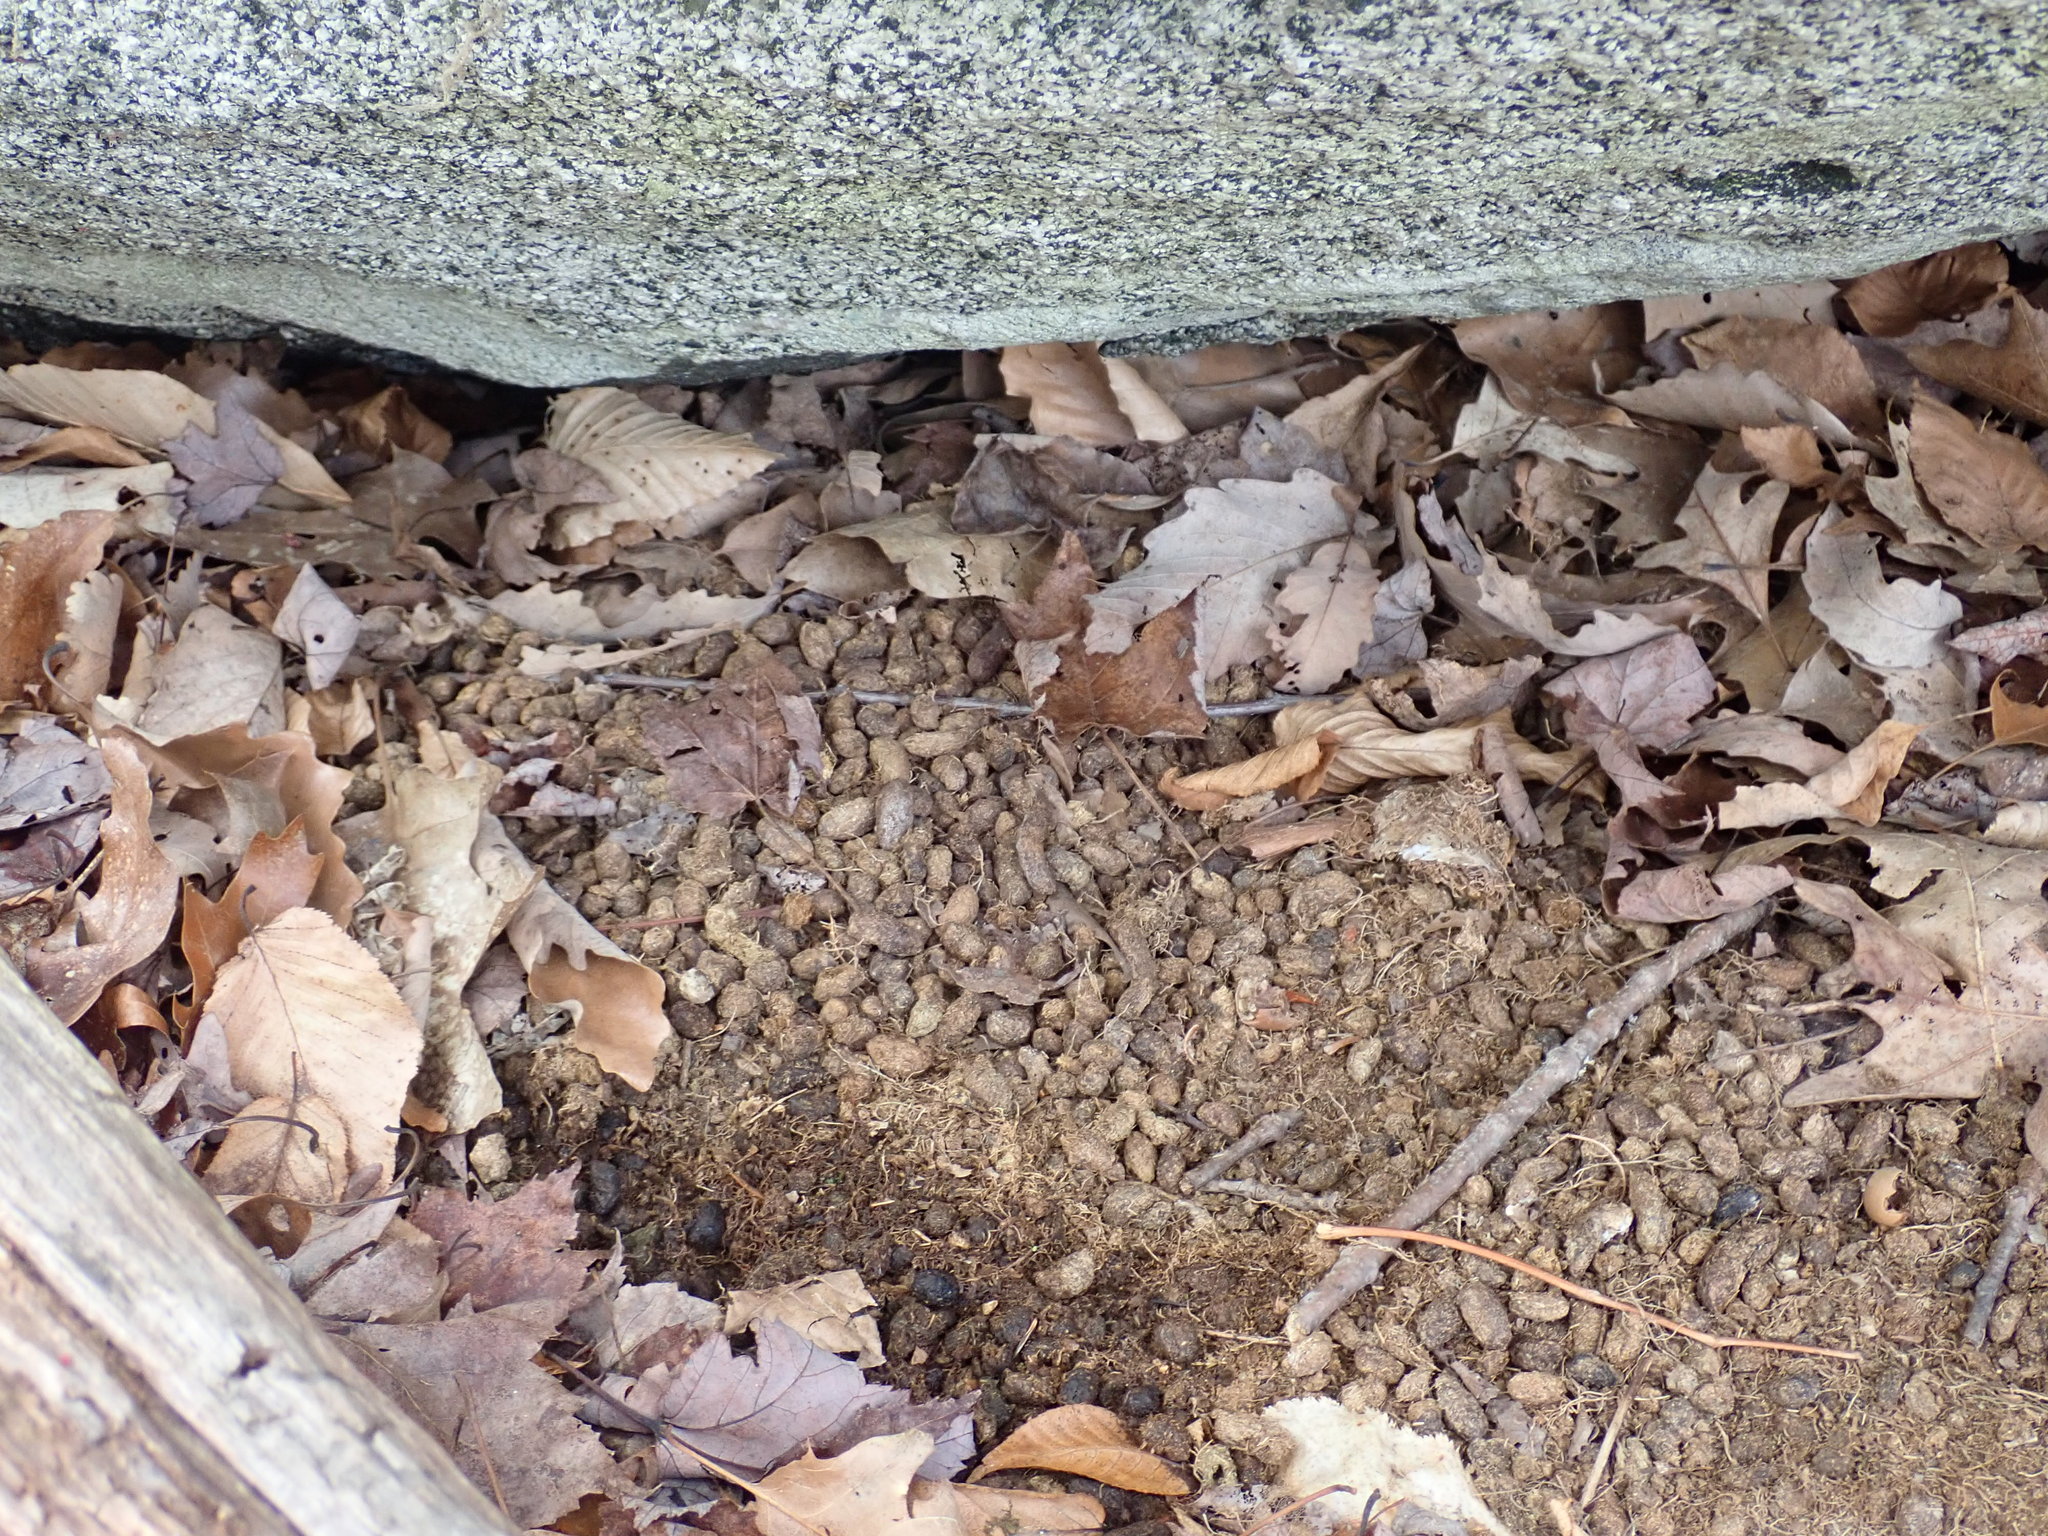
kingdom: Animalia
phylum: Chordata
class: Mammalia
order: Rodentia
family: Erethizontidae
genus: Erethizon
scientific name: Erethizon dorsatus
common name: North american porcupine
